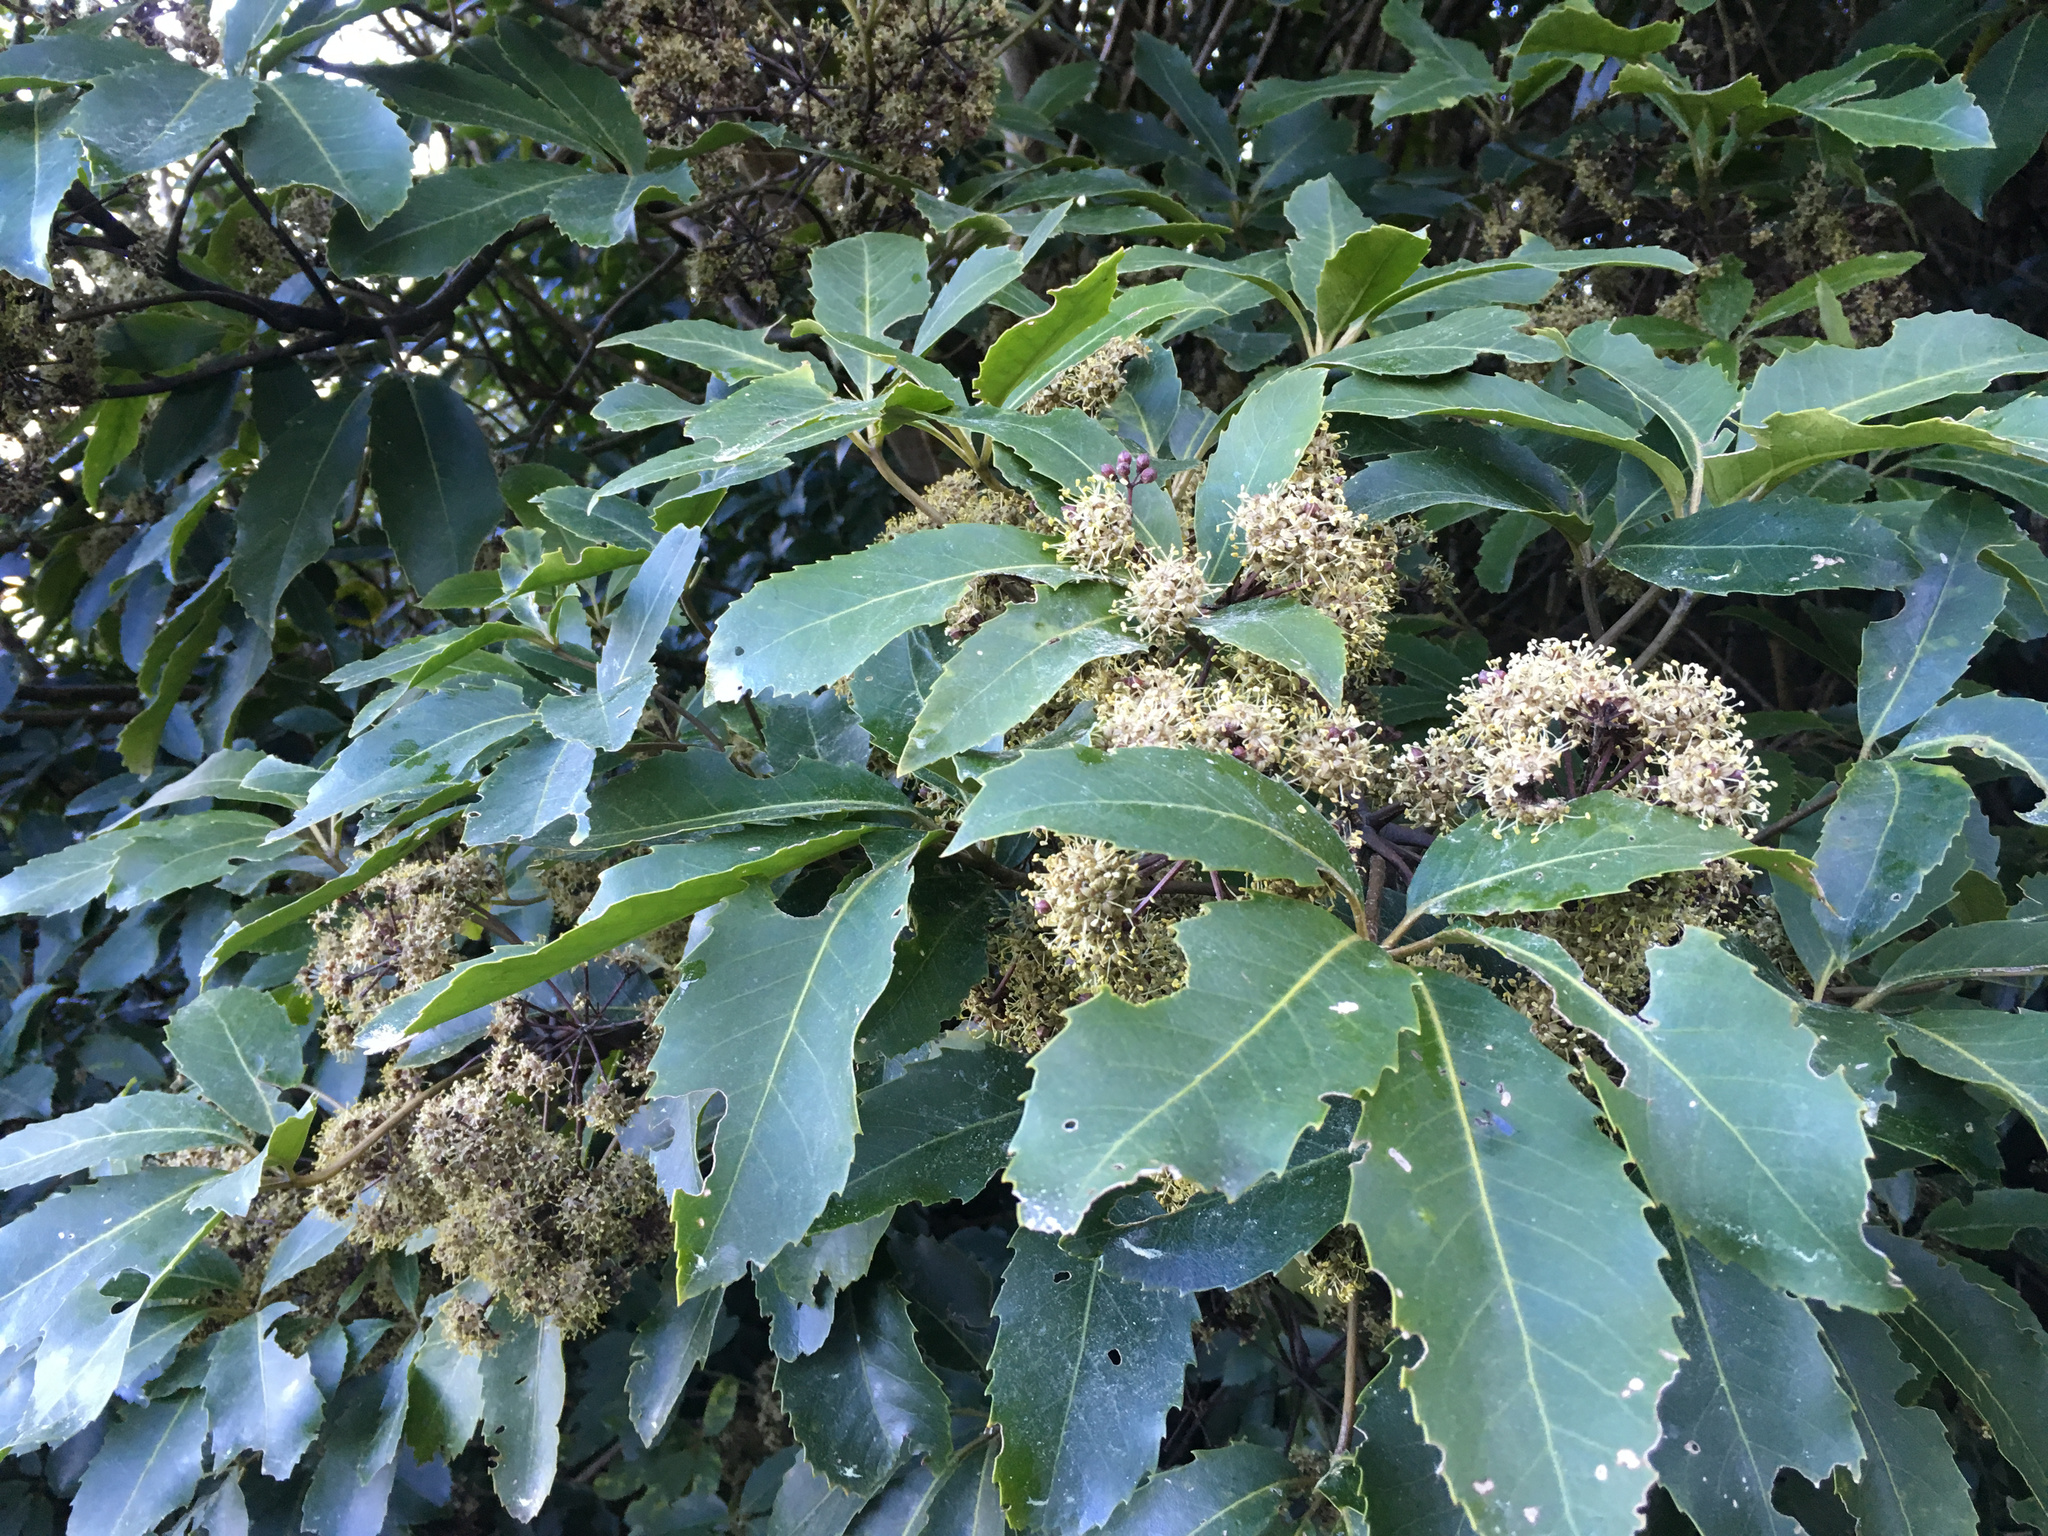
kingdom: Plantae
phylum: Tracheophyta
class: Magnoliopsida
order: Apiales
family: Araliaceae
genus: Neopanax
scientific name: Neopanax arboreus
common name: Five-fingers
